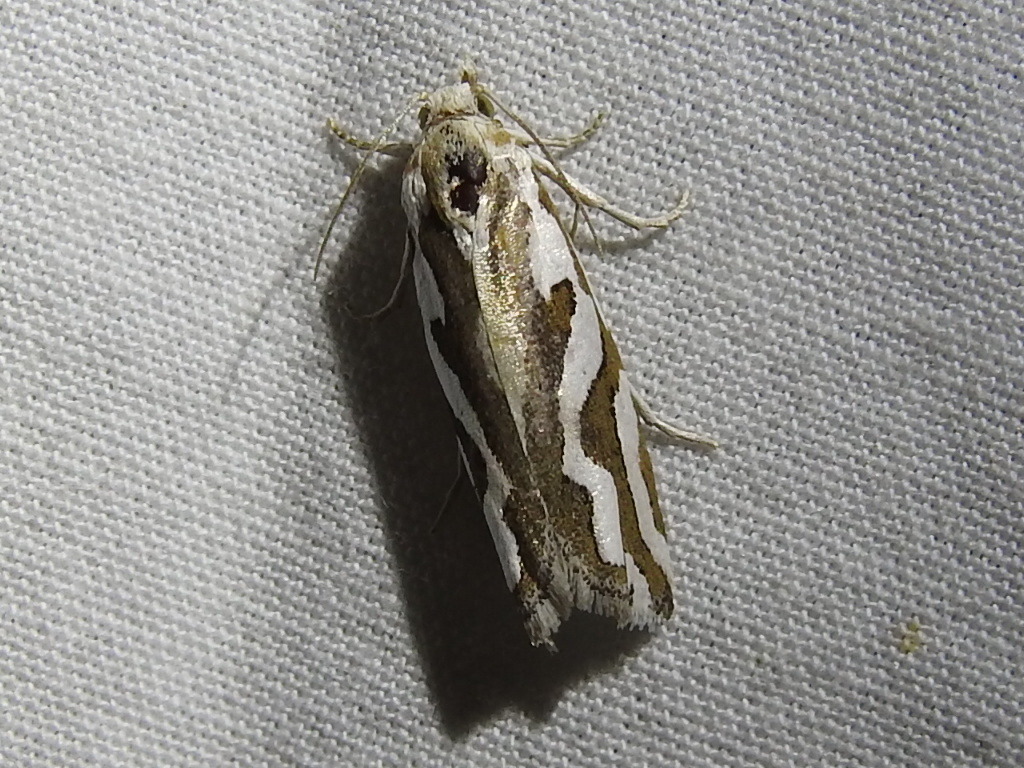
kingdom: Animalia
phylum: Arthropoda
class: Insecta
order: Lepidoptera
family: Tortricidae
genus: Pelochrista
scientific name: Pelochrista agassizii
